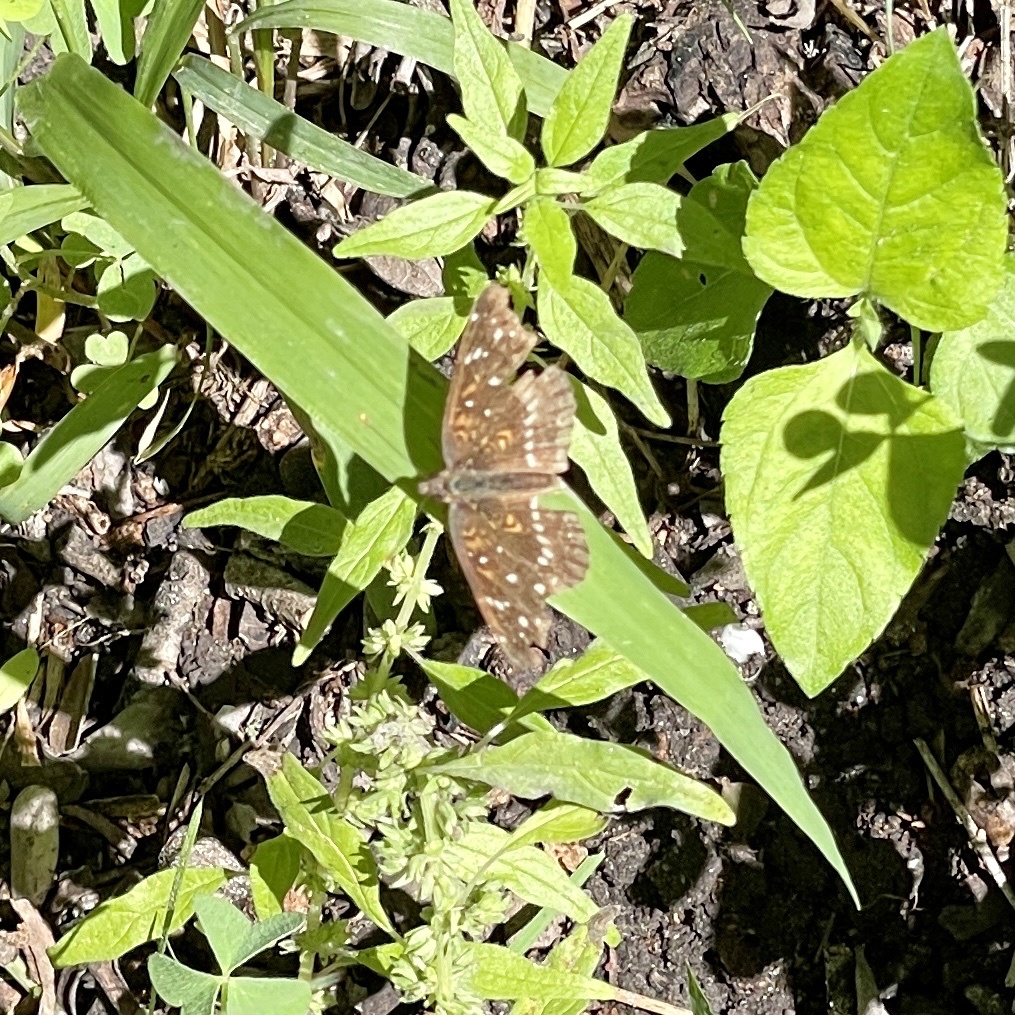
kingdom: Animalia
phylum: Arthropoda
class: Insecta
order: Lepidoptera
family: Nymphalidae
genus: Anthanassa
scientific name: Anthanassa texana
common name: Texan crescent
